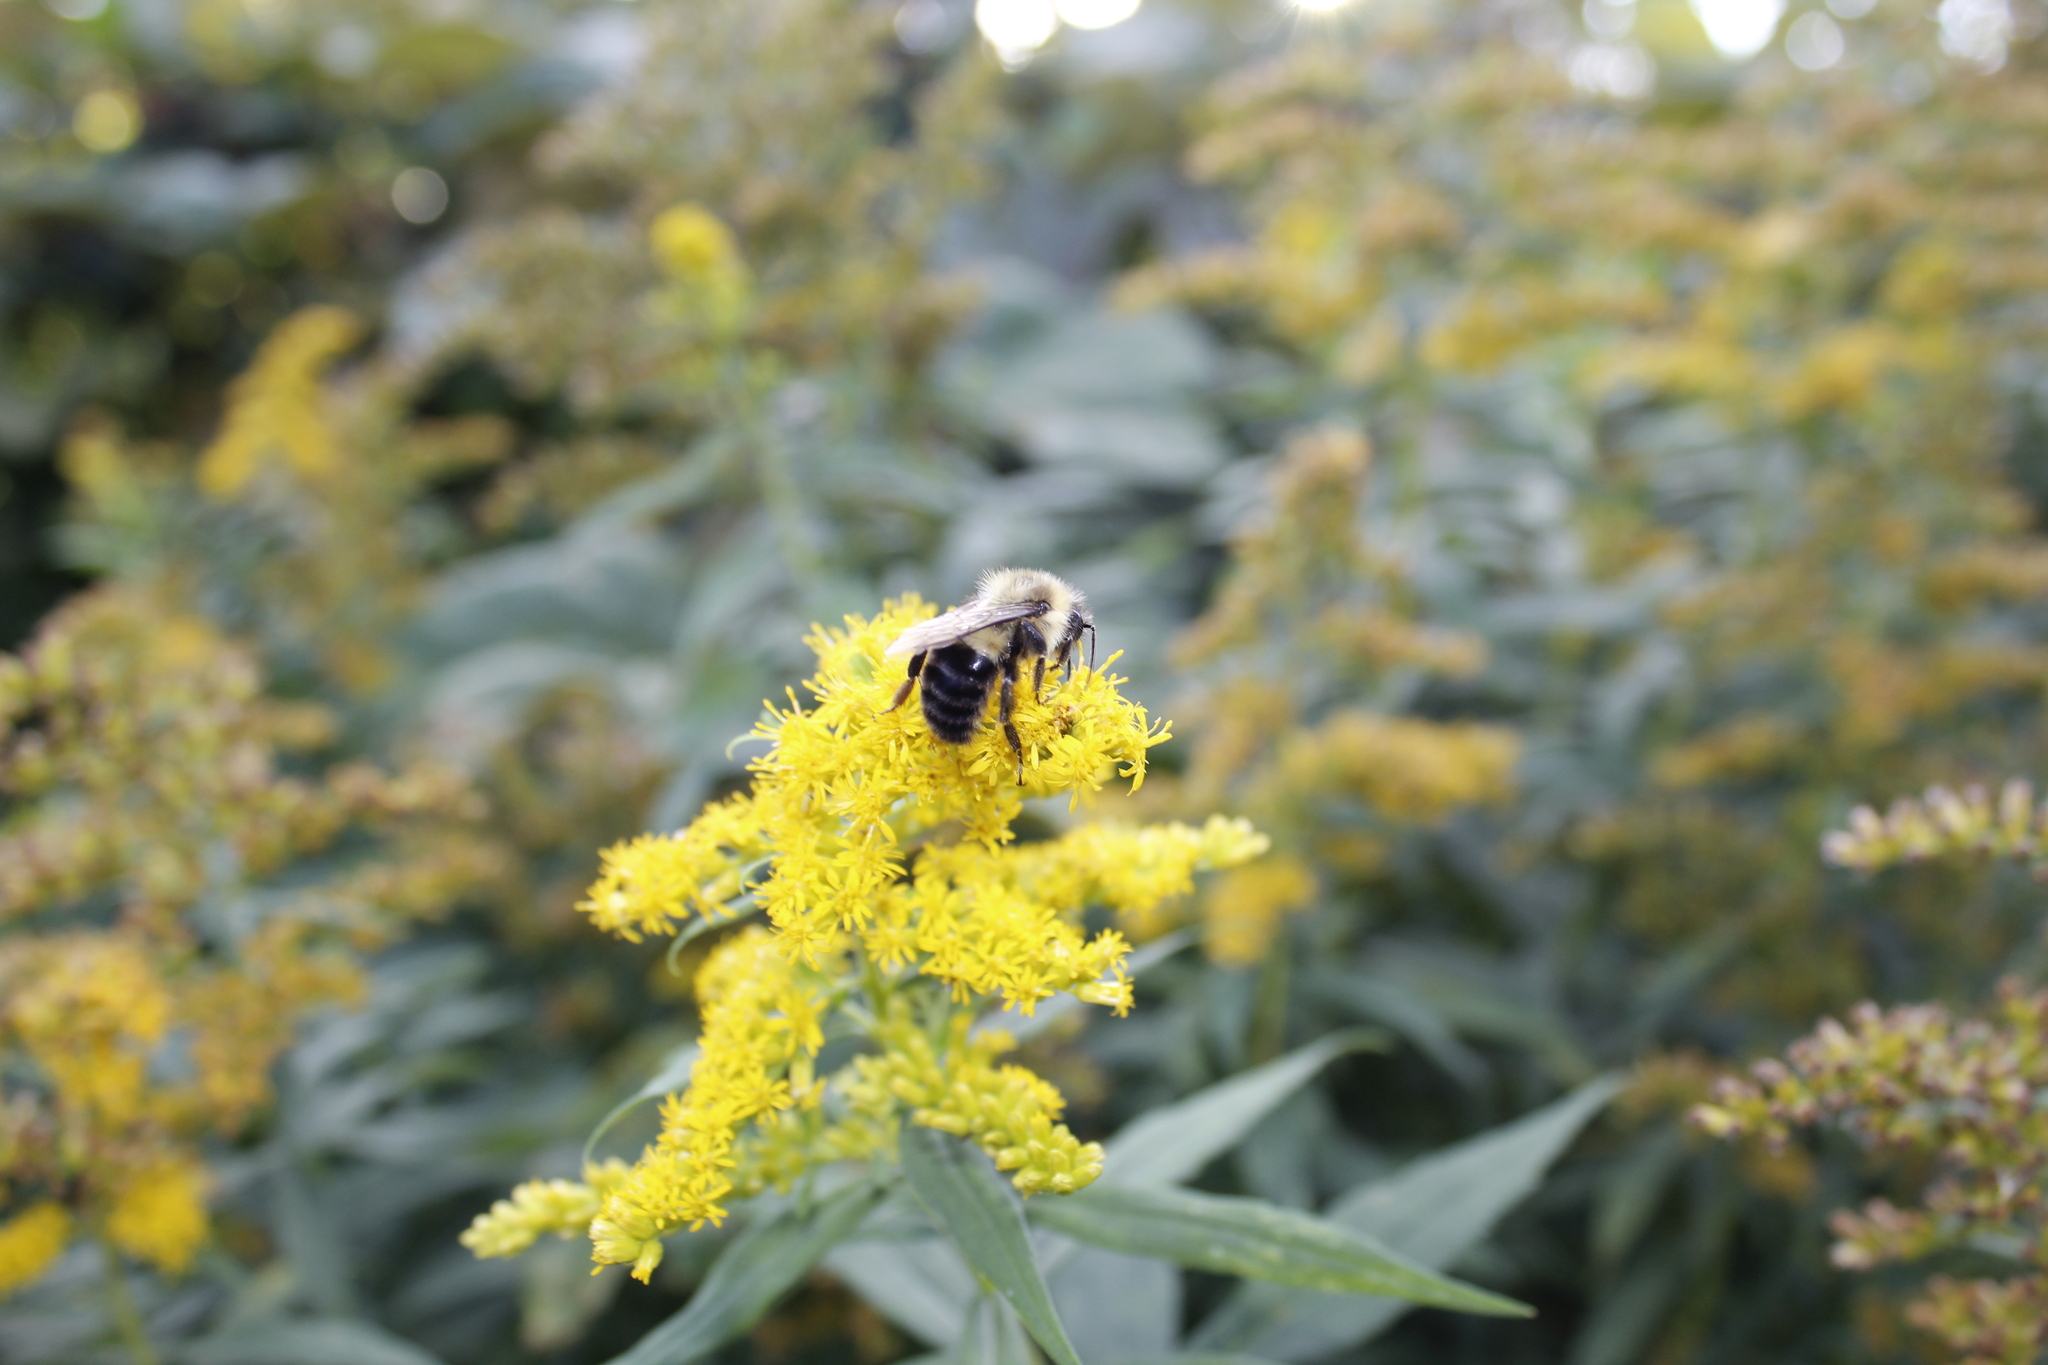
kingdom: Animalia
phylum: Arthropoda
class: Insecta
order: Hymenoptera
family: Apidae
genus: Bombus
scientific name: Bombus impatiens
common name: Common eastern bumble bee
